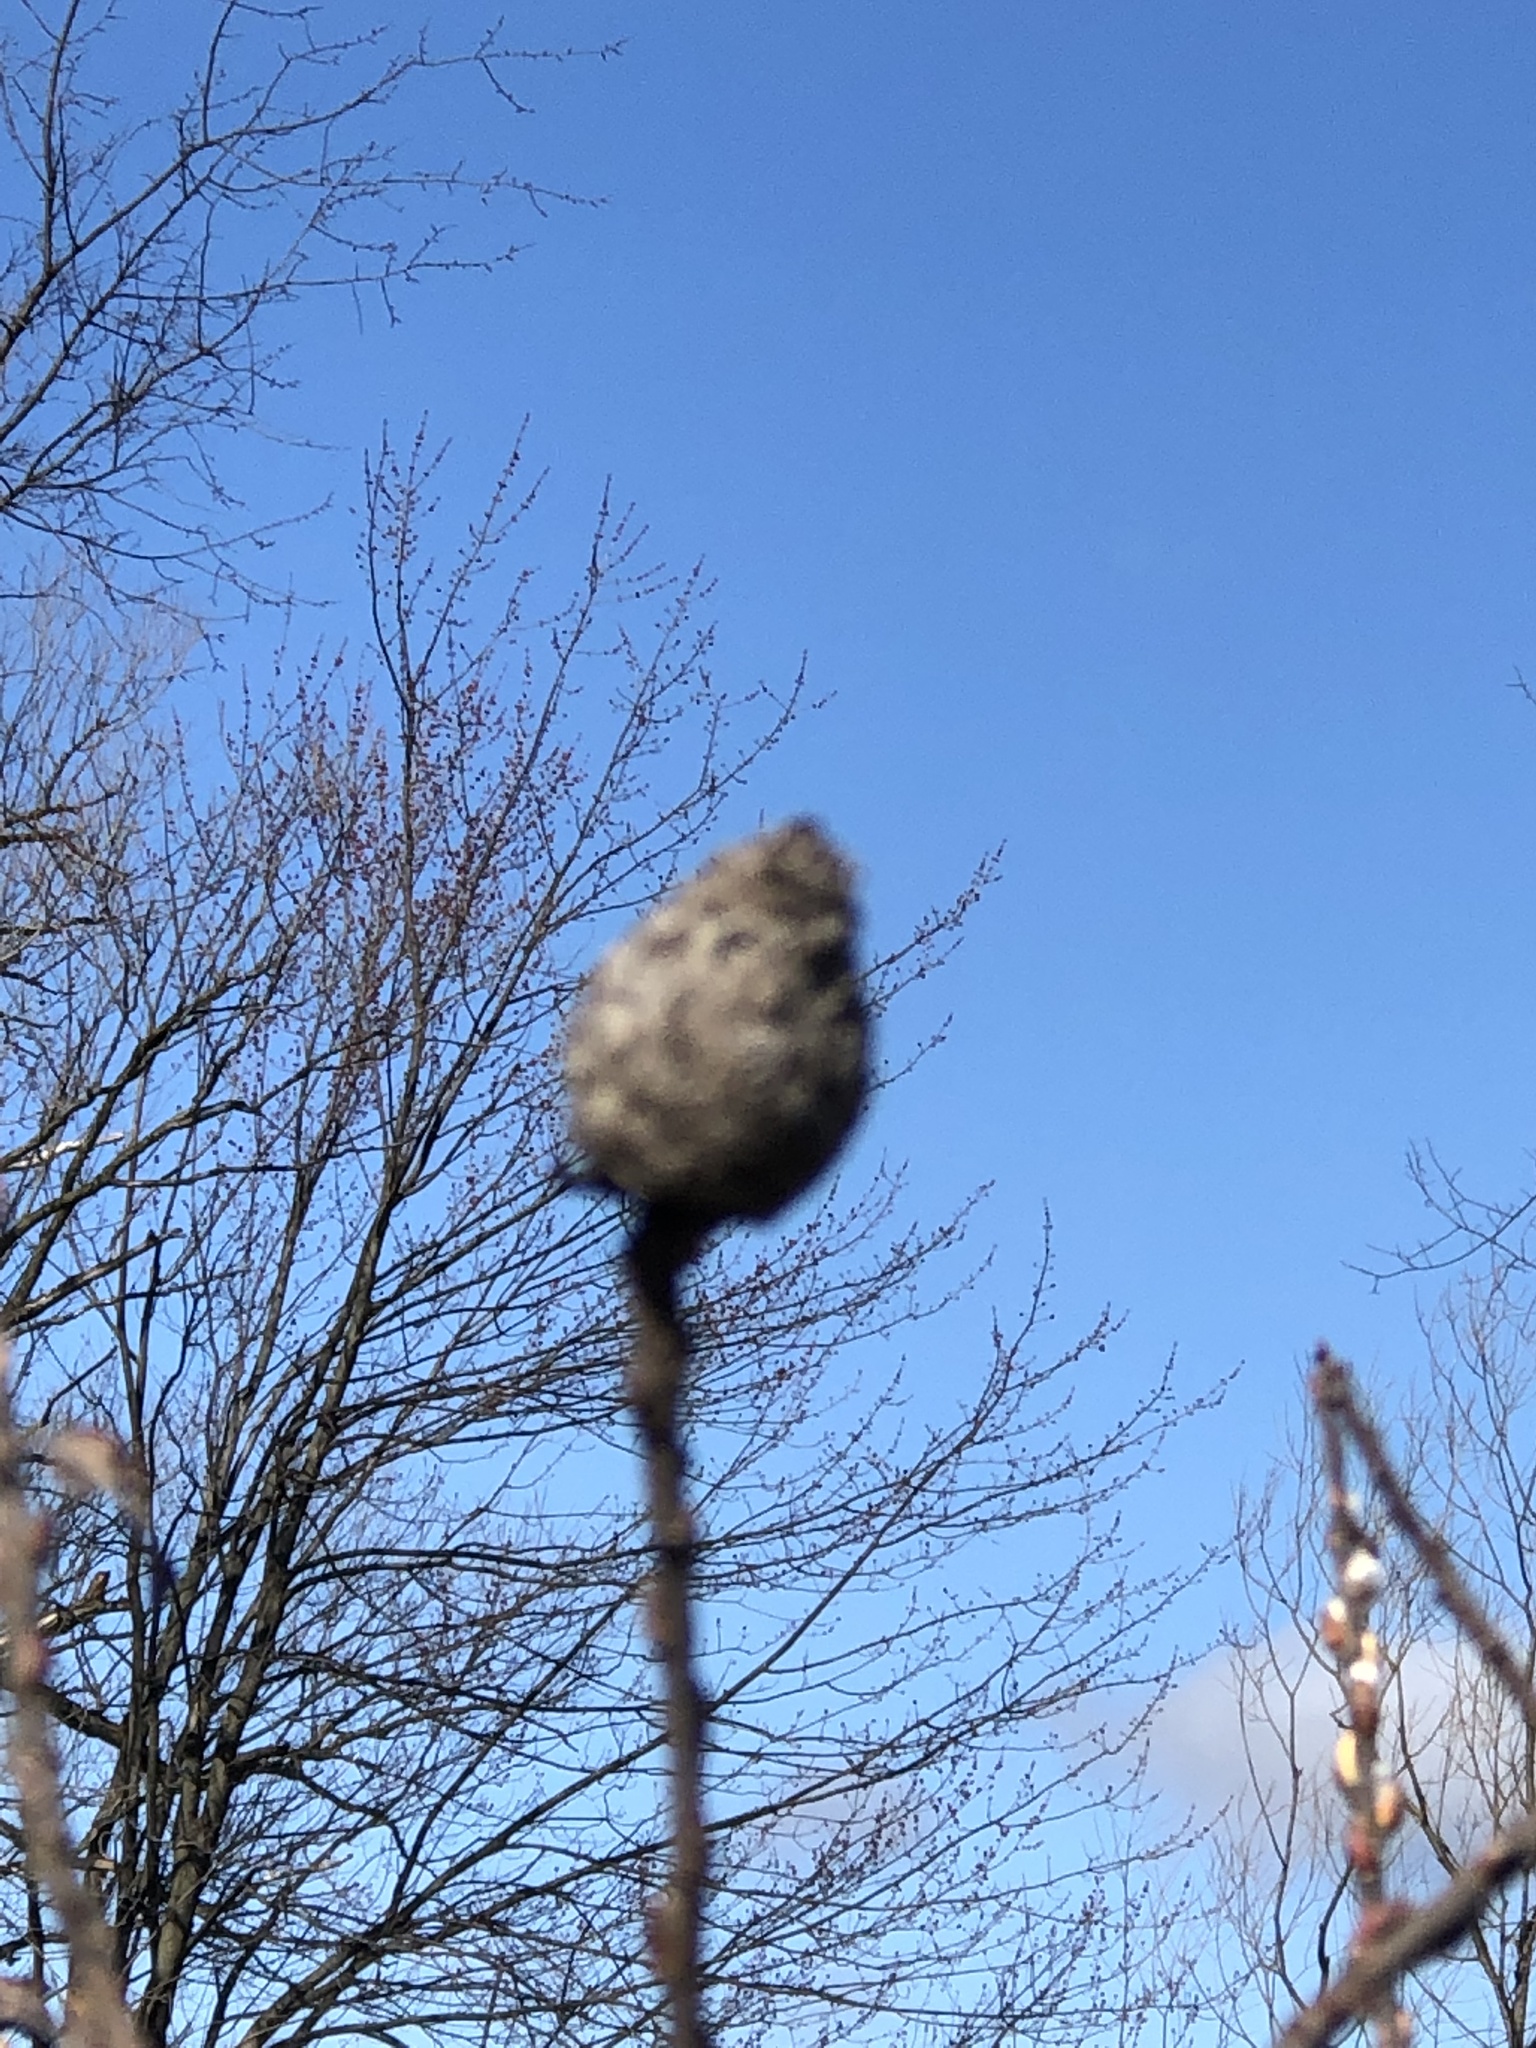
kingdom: Animalia
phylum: Arthropoda
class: Insecta
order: Diptera
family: Cecidomyiidae
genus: Rabdophaga
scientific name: Rabdophaga strobiloides
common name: Willow pinecone gall midge
